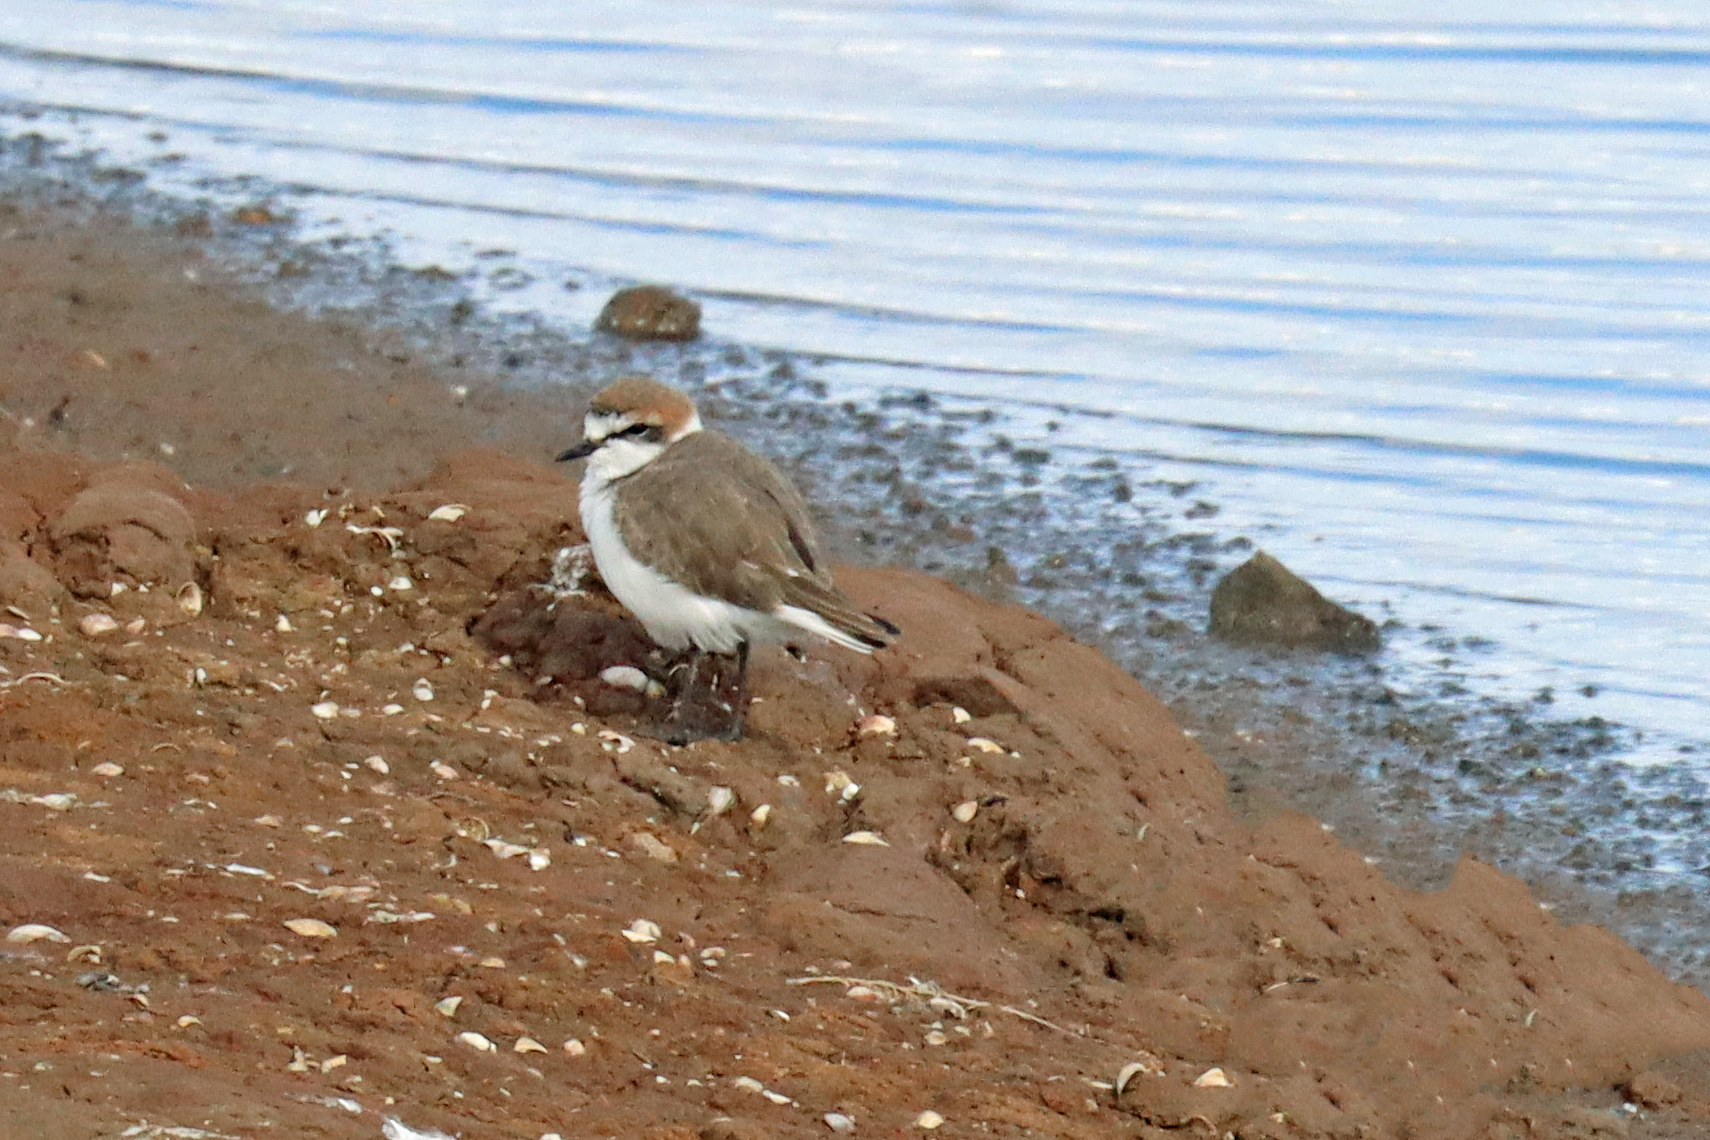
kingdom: Animalia
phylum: Chordata
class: Aves
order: Charadriiformes
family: Charadriidae
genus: Charadrius
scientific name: Charadrius alexandrinus
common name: Kentish plover
